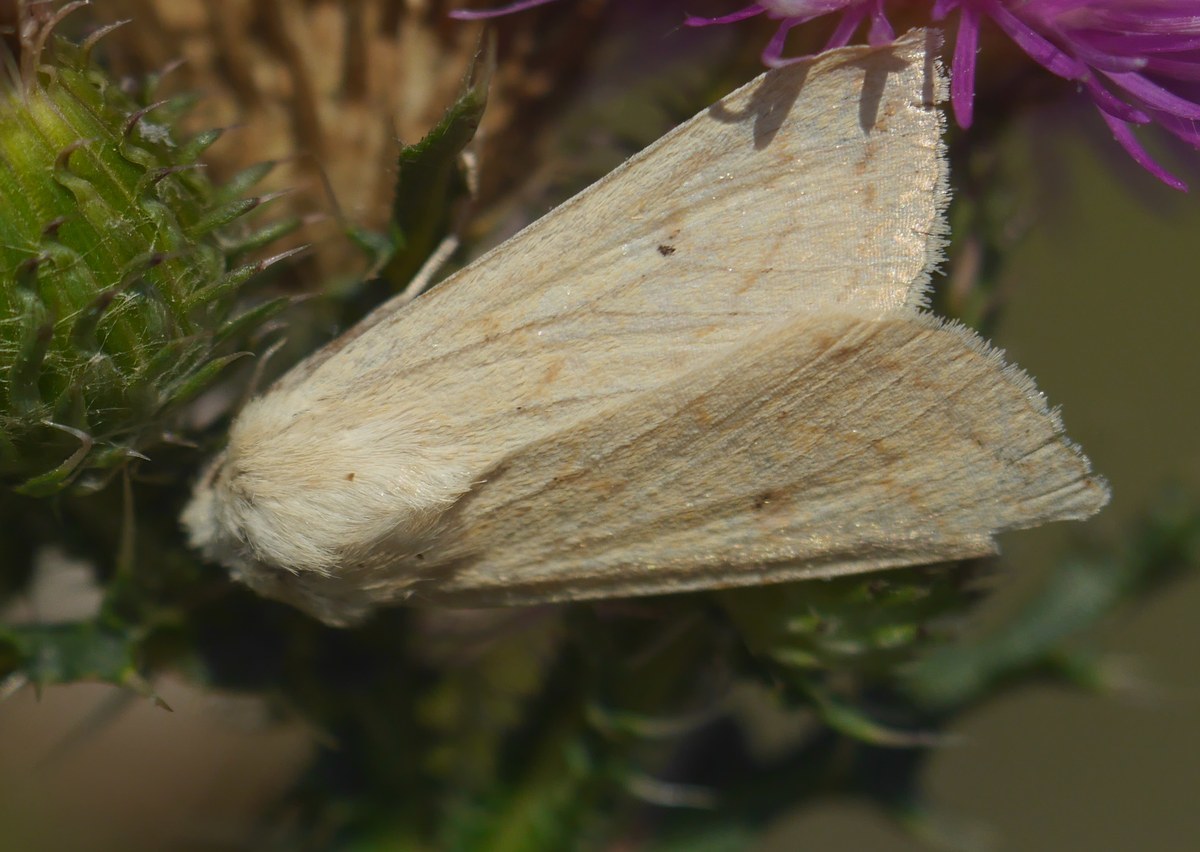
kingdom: Animalia
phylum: Arthropoda
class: Insecta
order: Lepidoptera
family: Noctuidae
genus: Mythimna
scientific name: Mythimna vitellina
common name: Delicate
